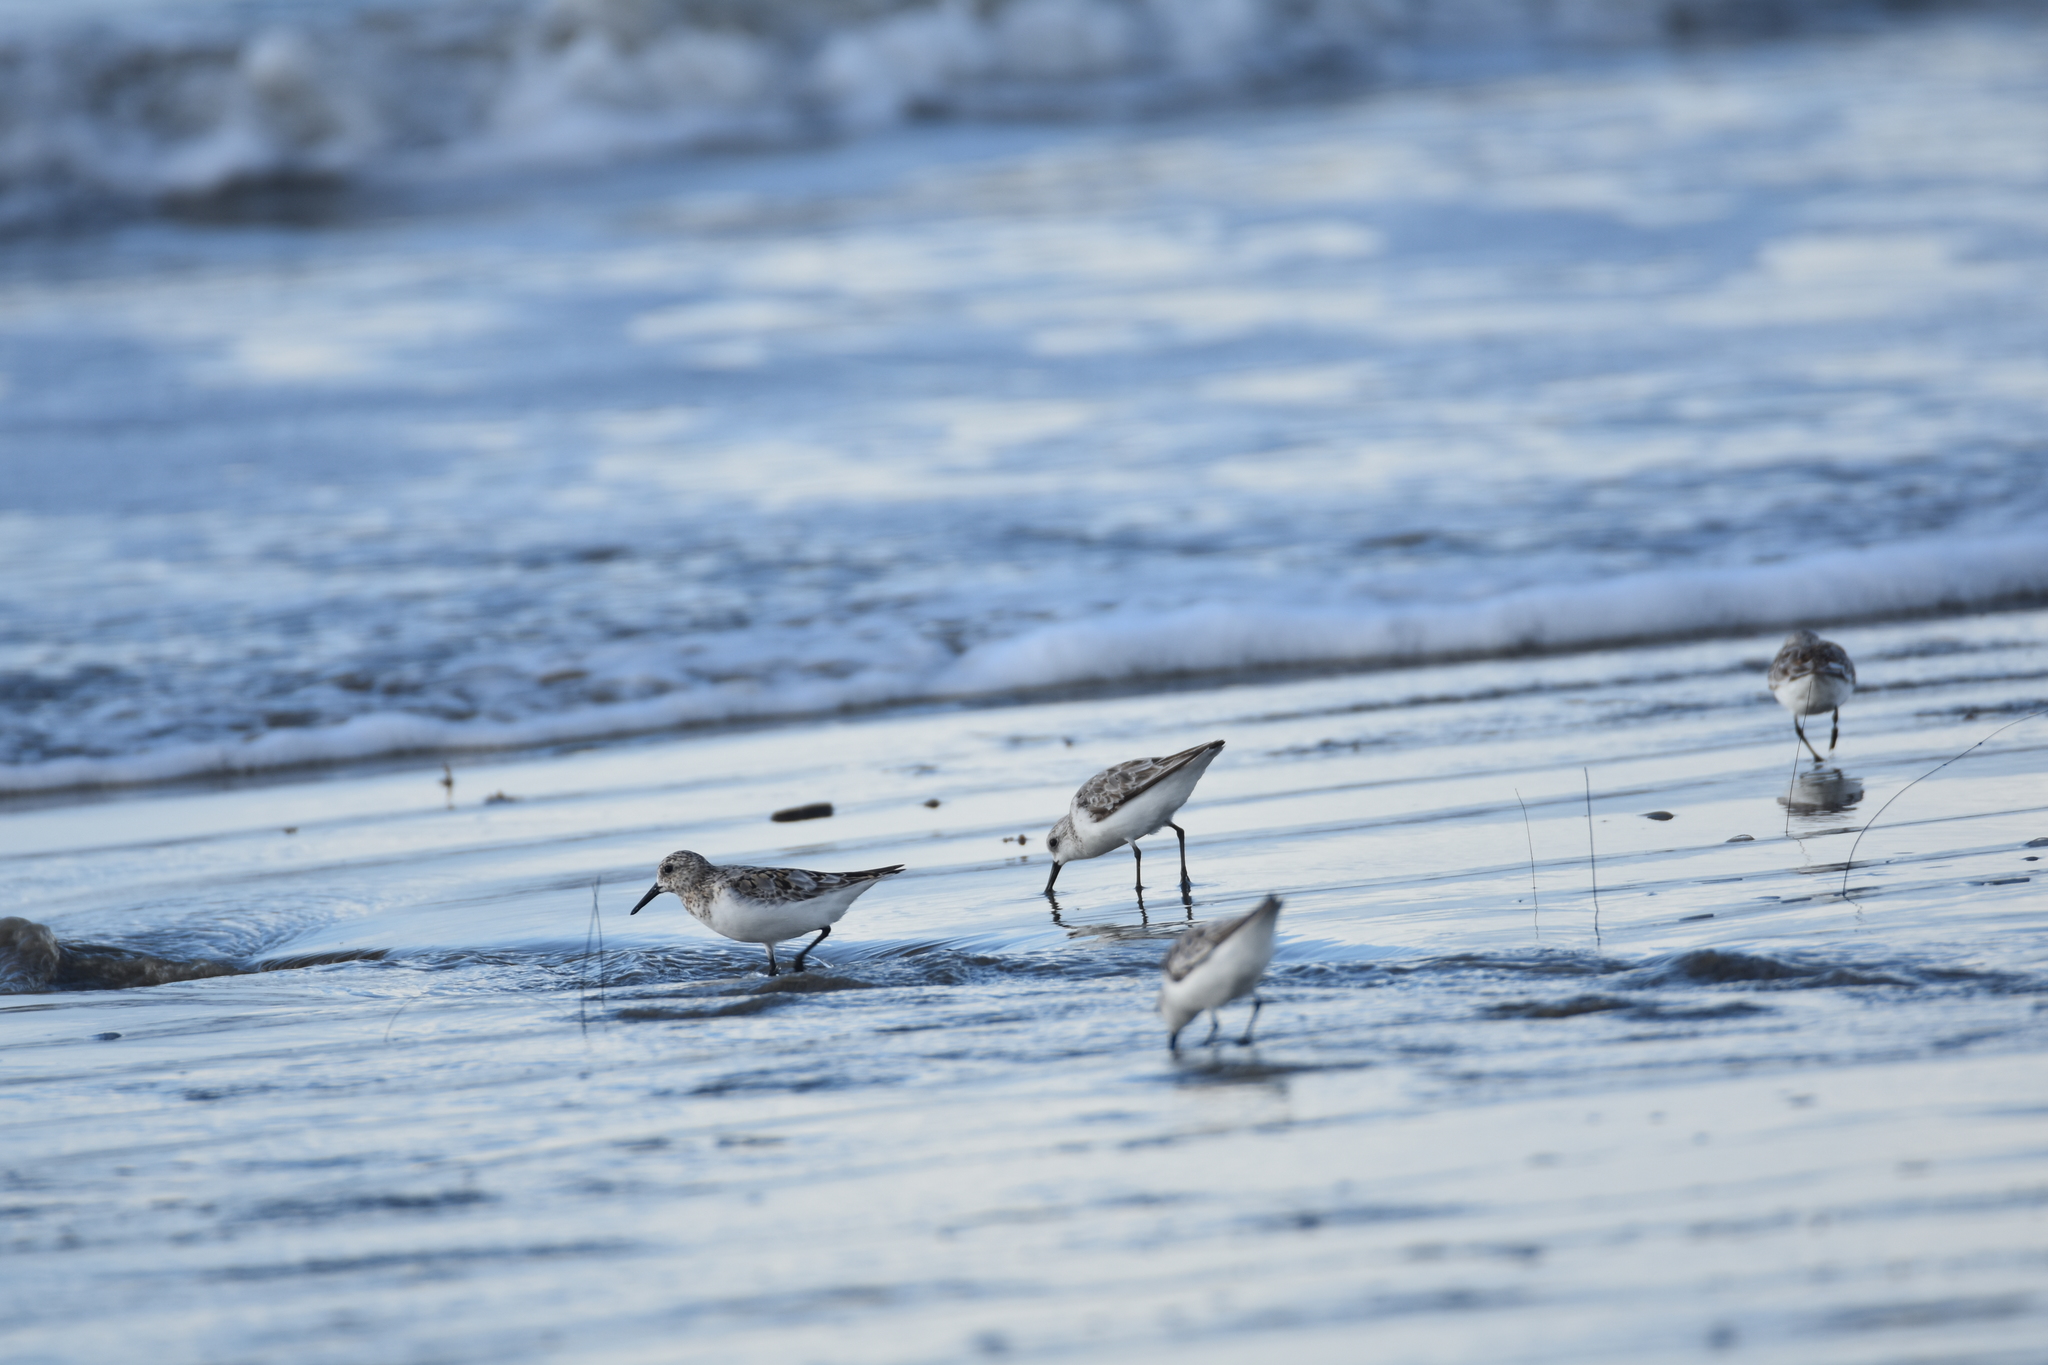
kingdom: Animalia
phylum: Chordata
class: Aves
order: Charadriiformes
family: Scolopacidae
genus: Calidris
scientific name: Calidris alba
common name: Sanderling
